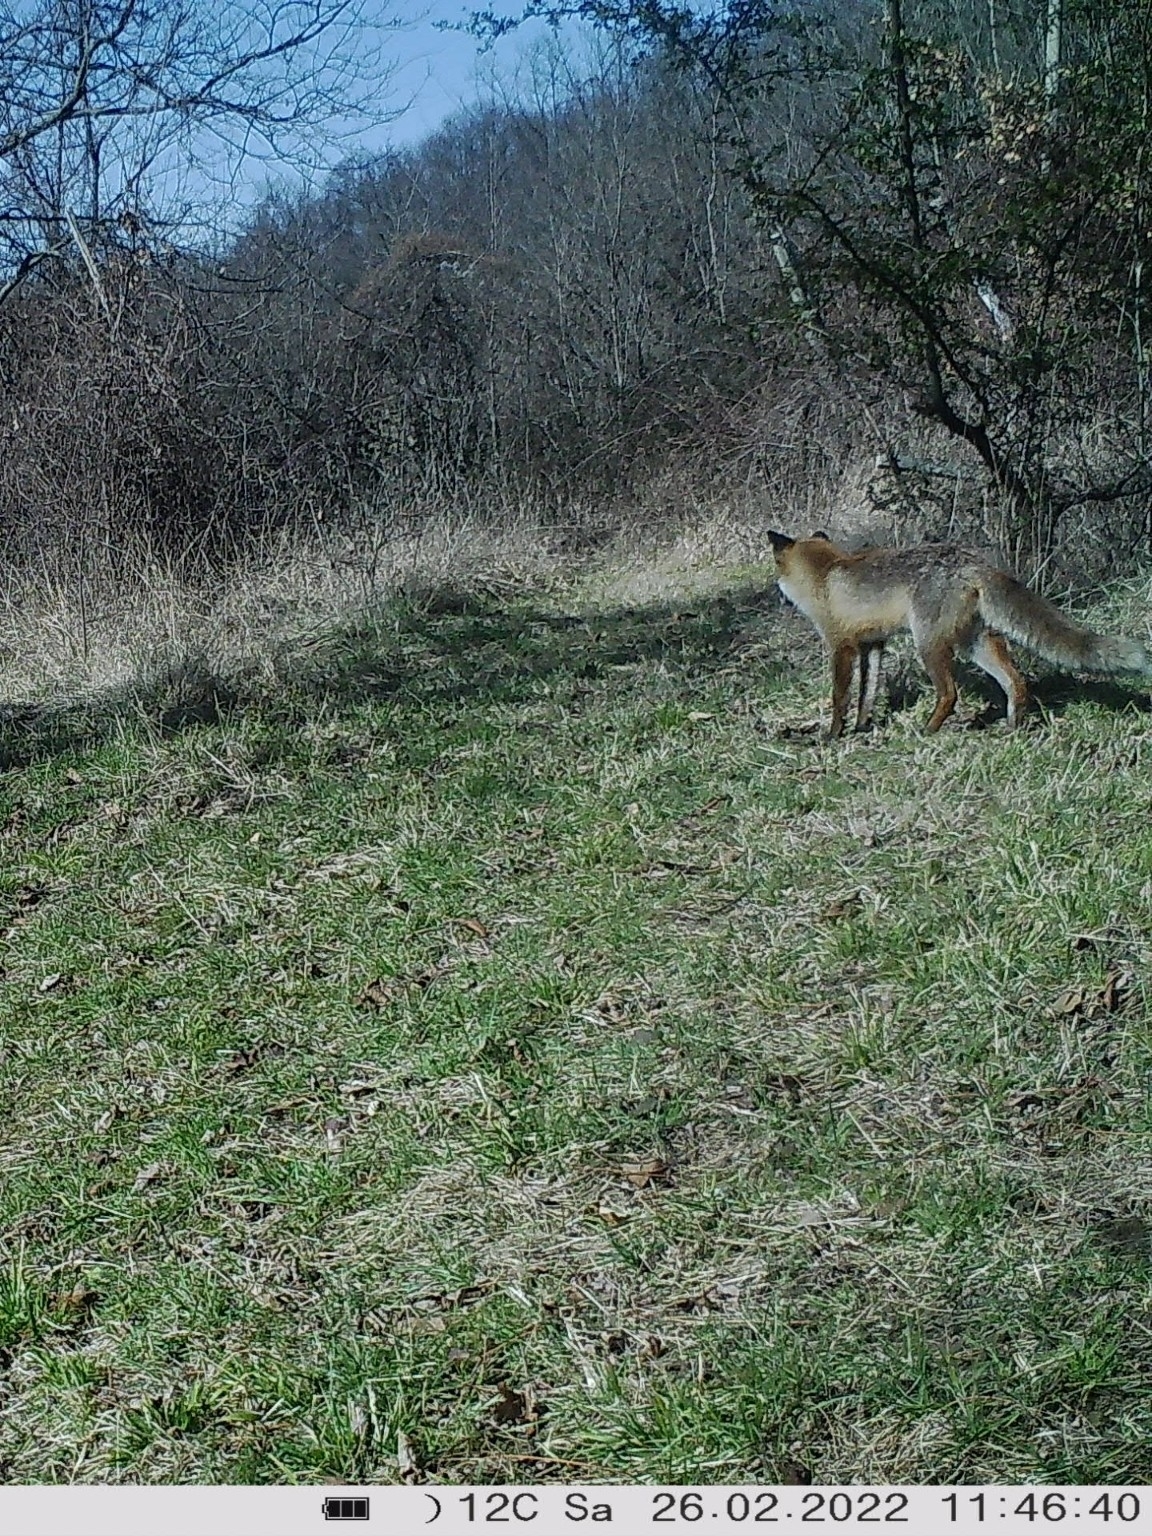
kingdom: Animalia
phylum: Chordata
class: Mammalia
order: Carnivora
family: Canidae
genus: Vulpes
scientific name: Vulpes vulpes
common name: Red fox
